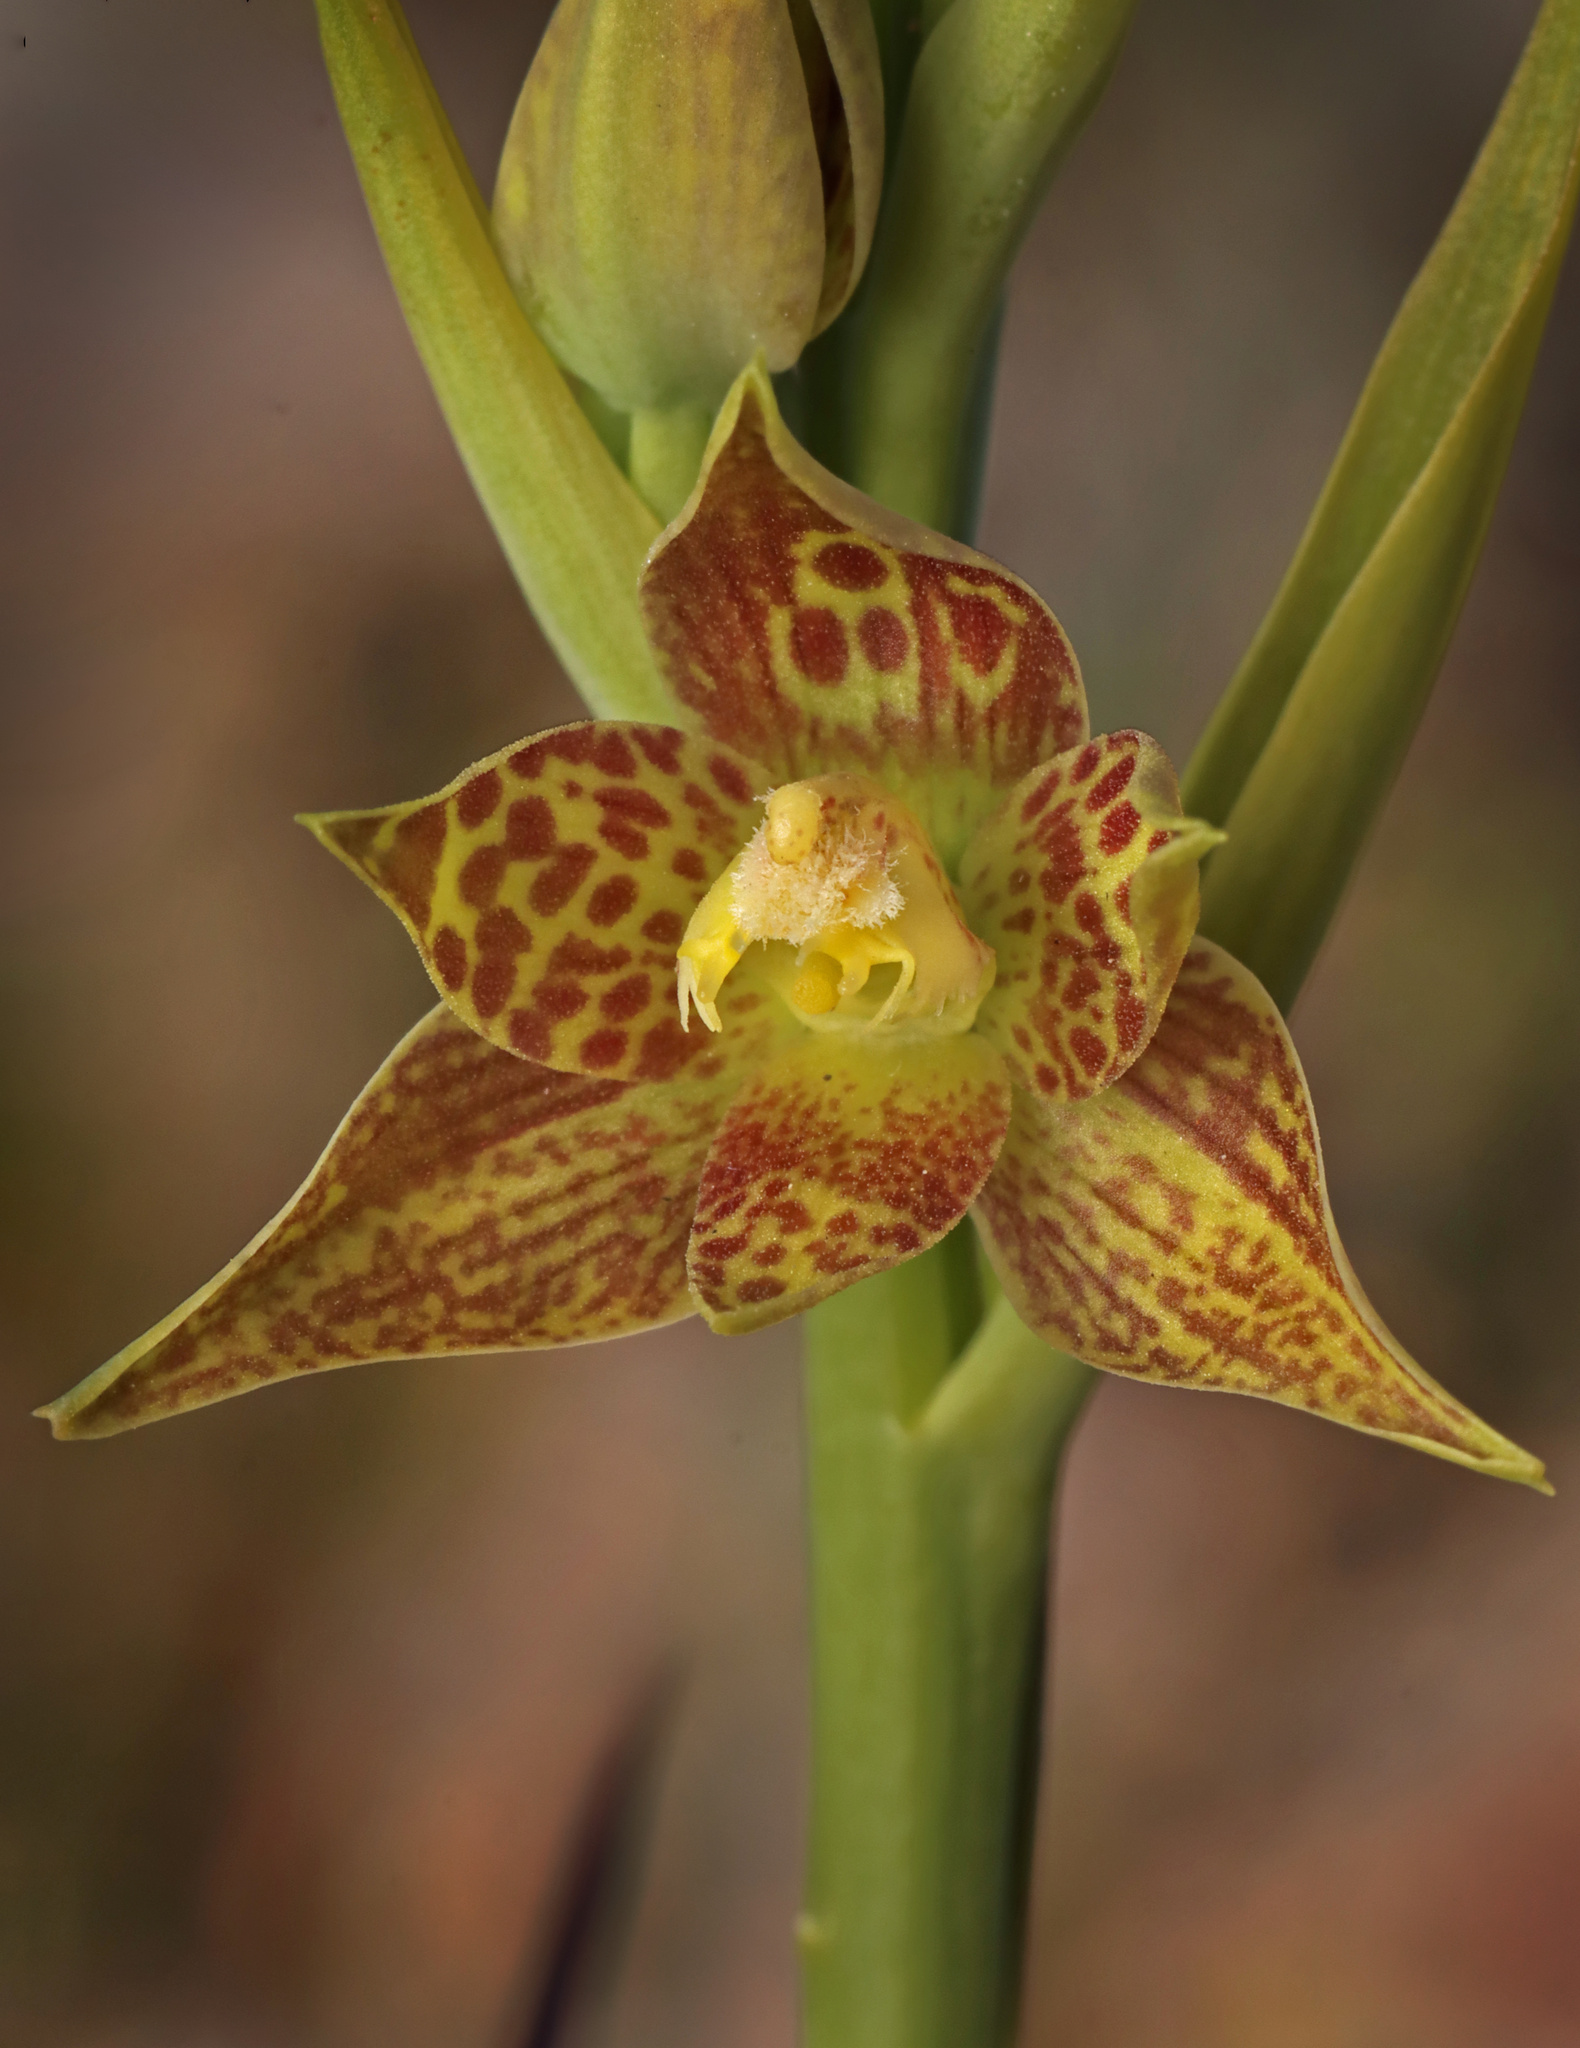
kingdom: Plantae
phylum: Tracheophyta
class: Liliopsida
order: Asparagales
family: Orchidaceae
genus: Thelymitra
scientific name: Thelymitra benthamiana
